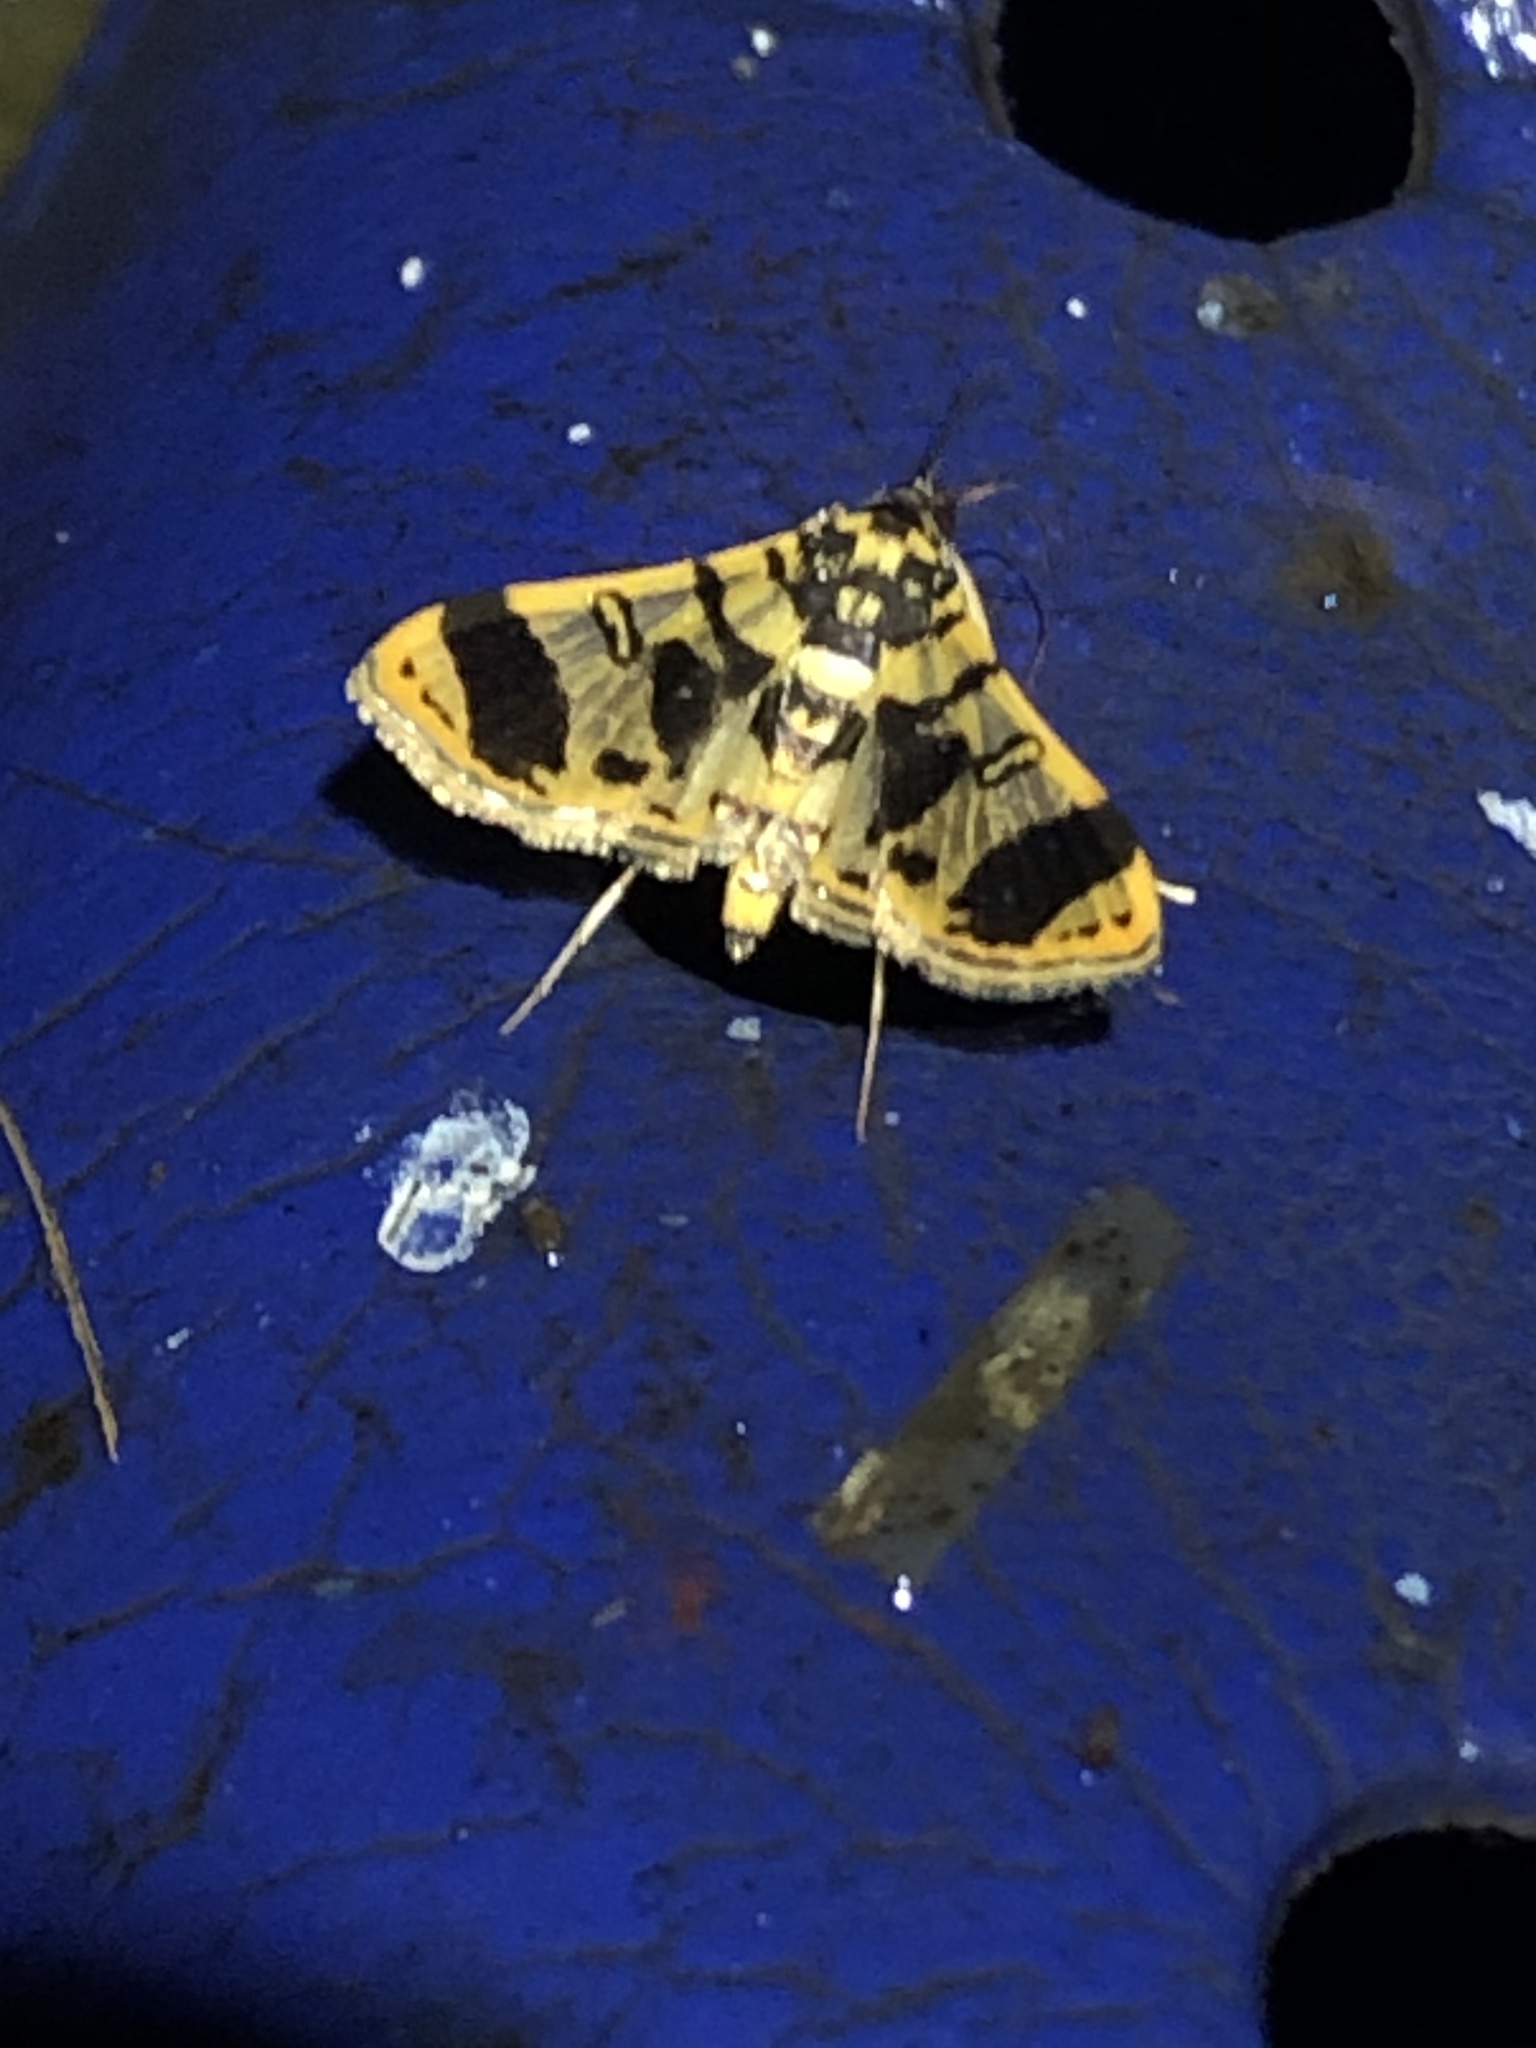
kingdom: Animalia
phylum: Arthropoda
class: Insecta
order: Lepidoptera
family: Crambidae
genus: Bradina
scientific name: Bradina aaronalis
